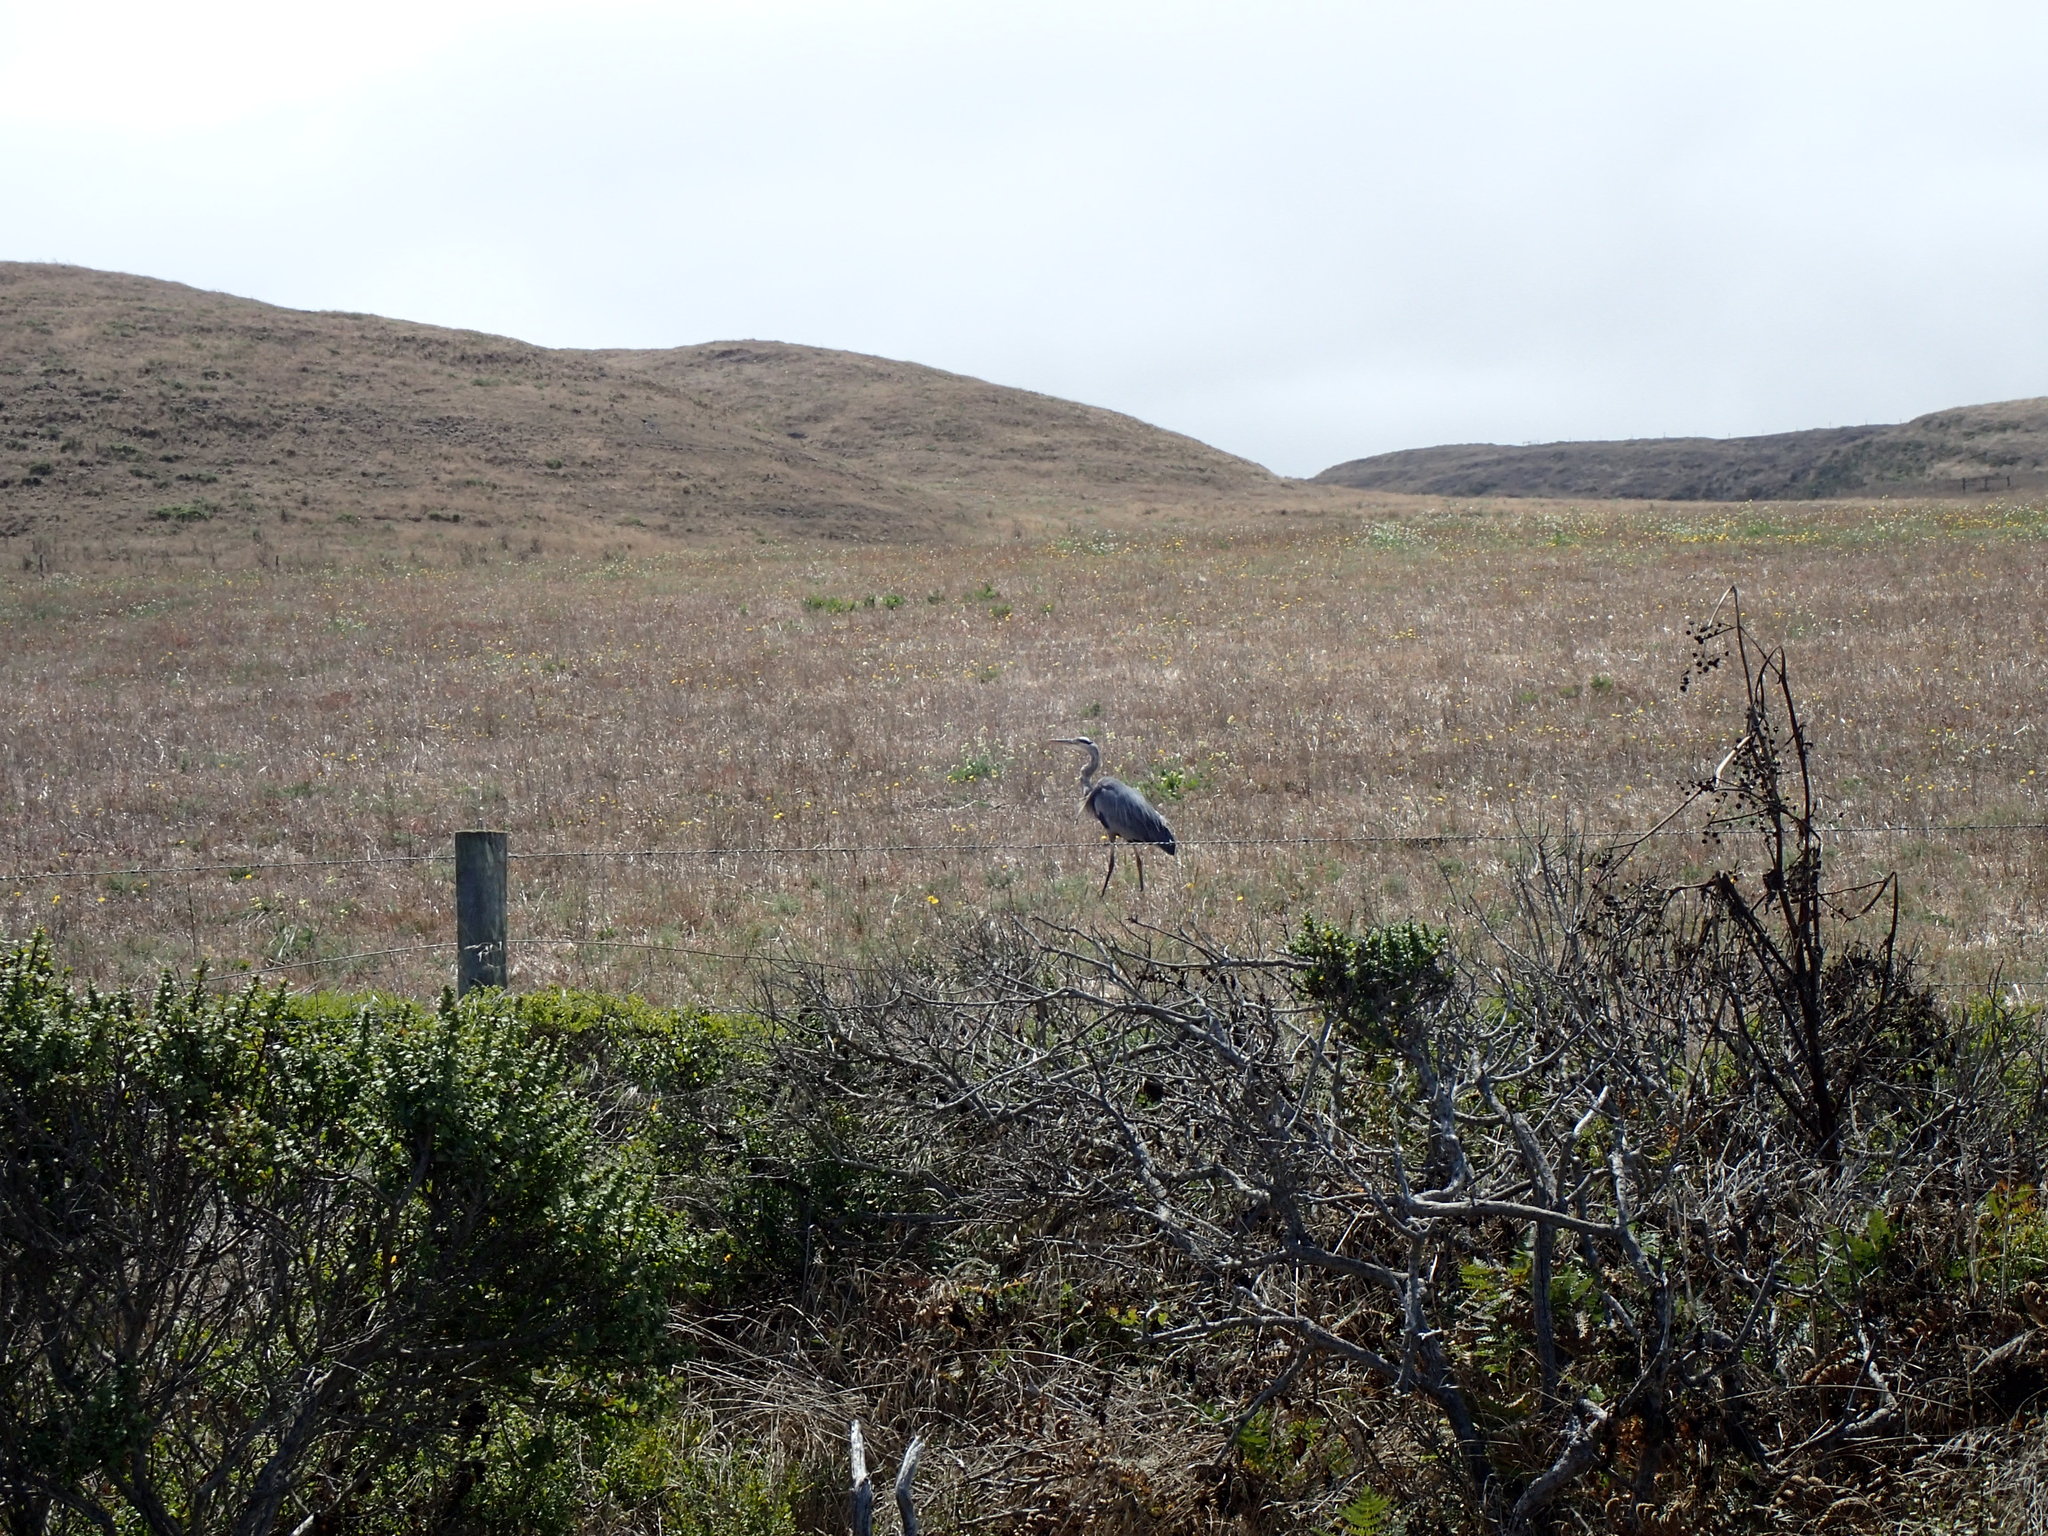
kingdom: Animalia
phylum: Chordata
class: Aves
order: Pelecaniformes
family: Ardeidae
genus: Ardea
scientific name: Ardea herodias
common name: Great blue heron
